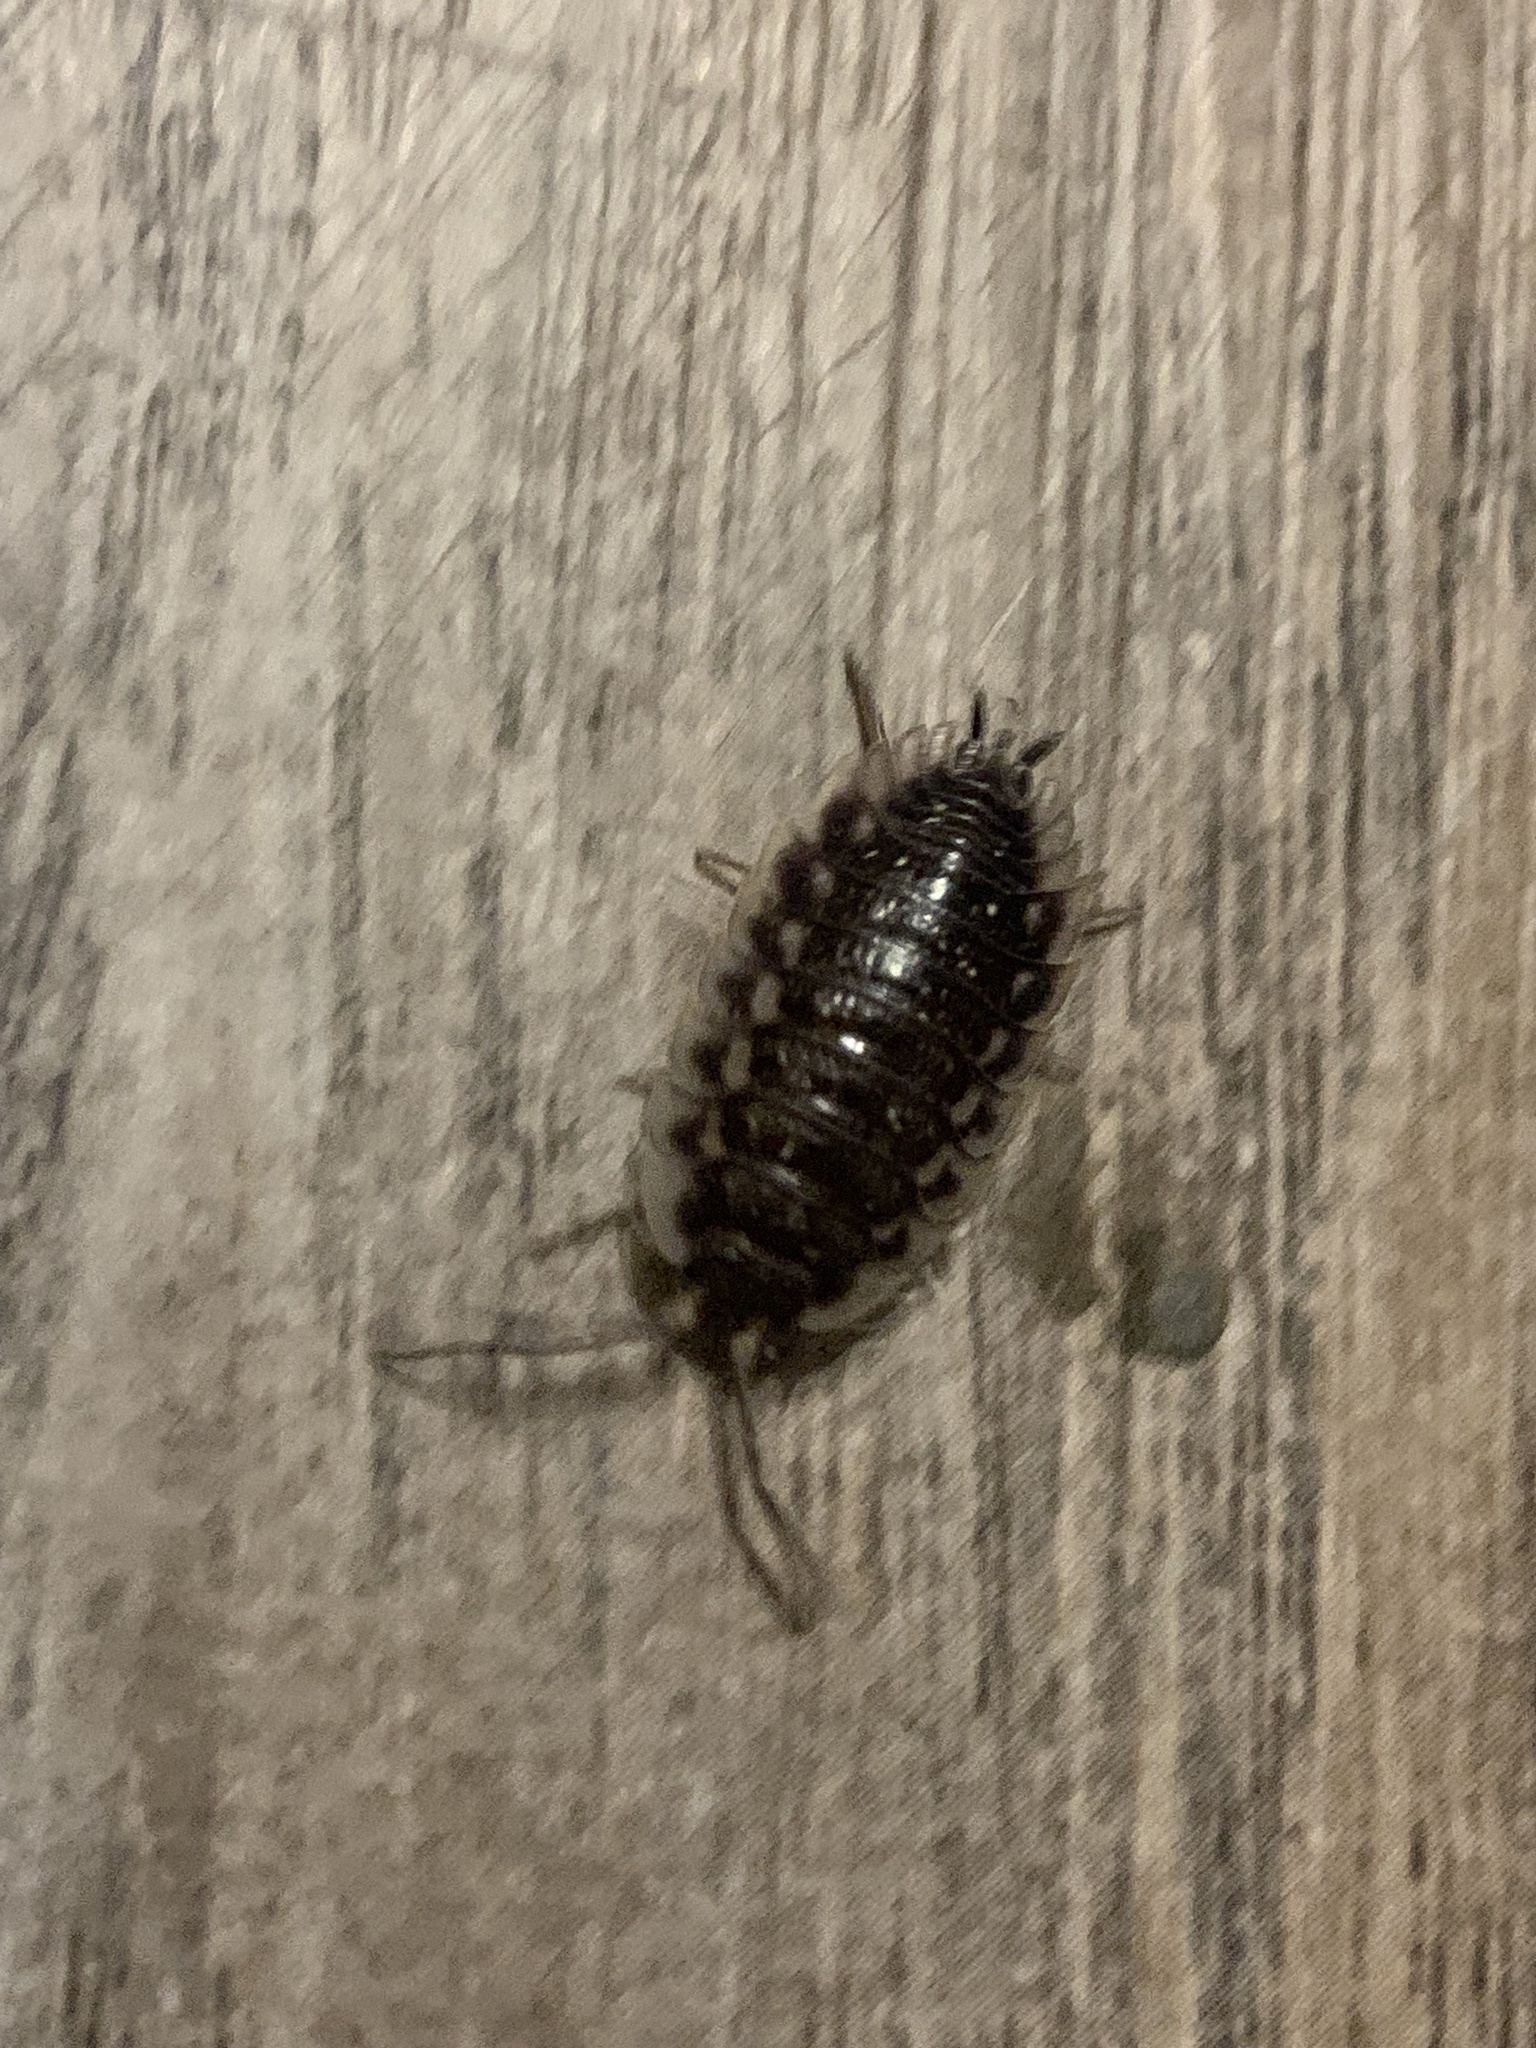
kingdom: Animalia
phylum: Arthropoda
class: Malacostraca
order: Isopoda
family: Oniscidae
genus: Oniscus
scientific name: Oniscus asellus
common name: Common shiny woodlouse
